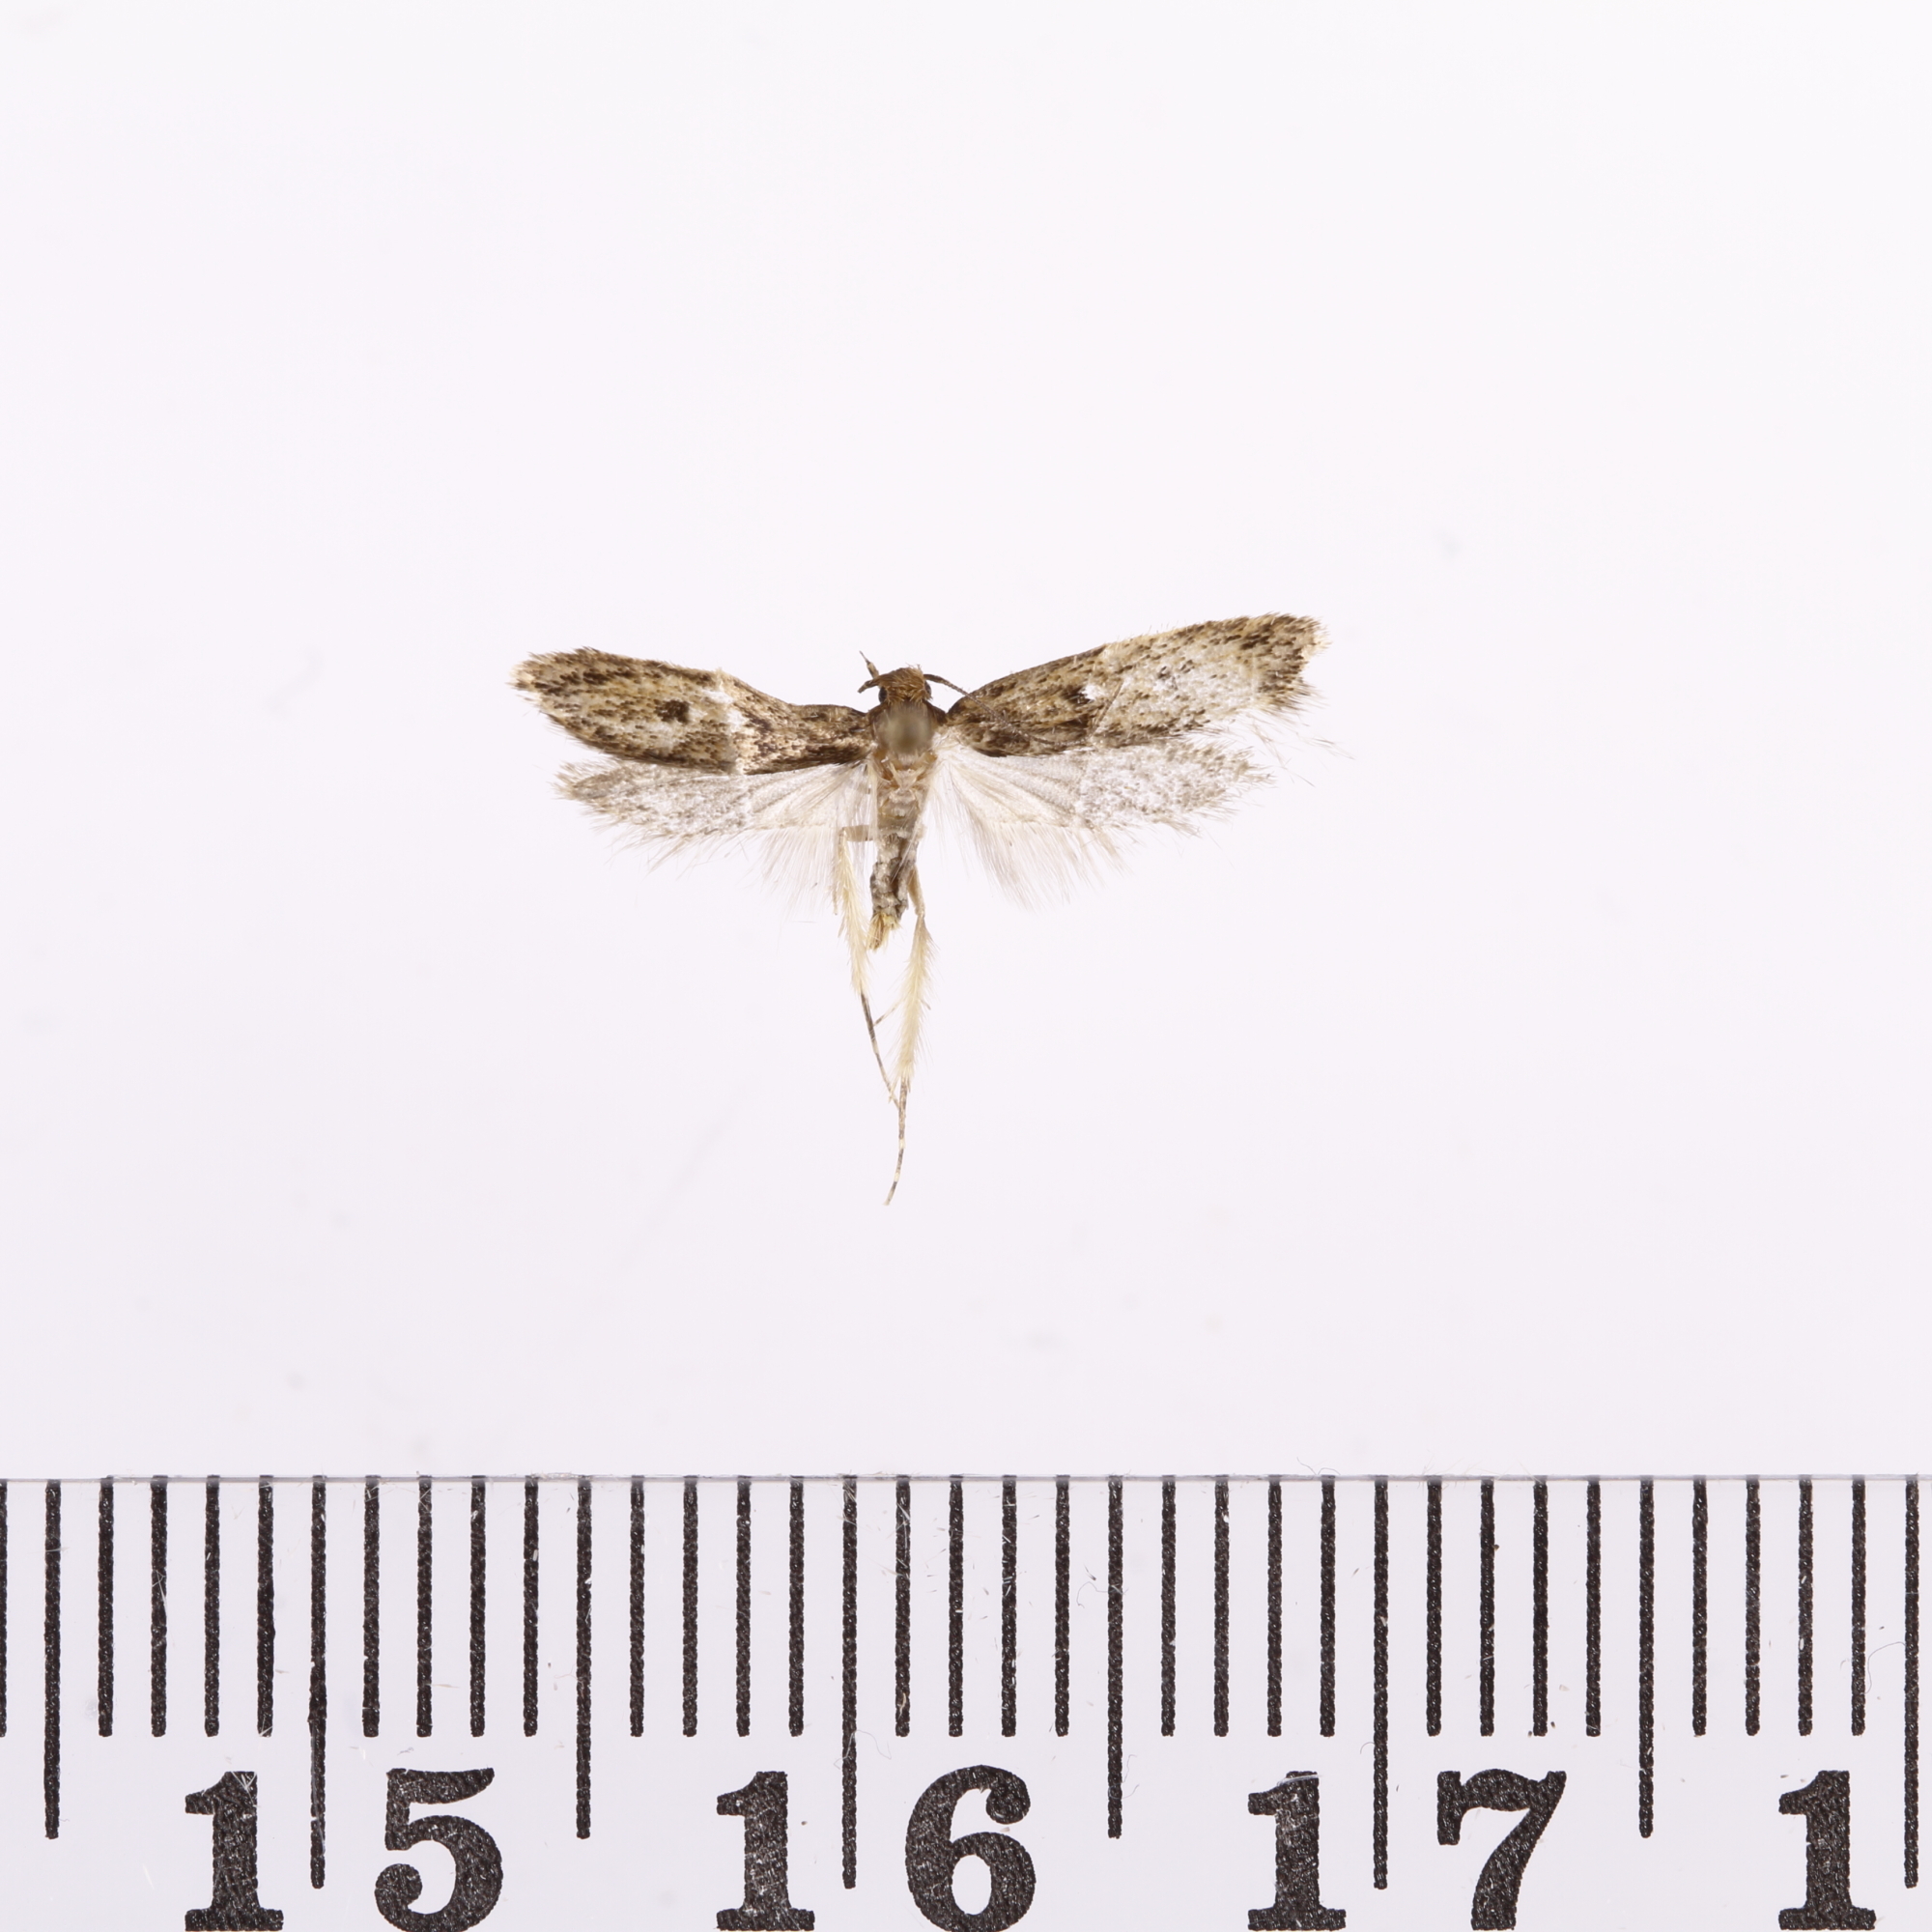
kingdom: Animalia
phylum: Arthropoda
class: Insecta
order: Lepidoptera
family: Oecophoridae
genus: Hofmannophila
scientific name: Hofmannophila pseudospretella
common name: Brown house moth
